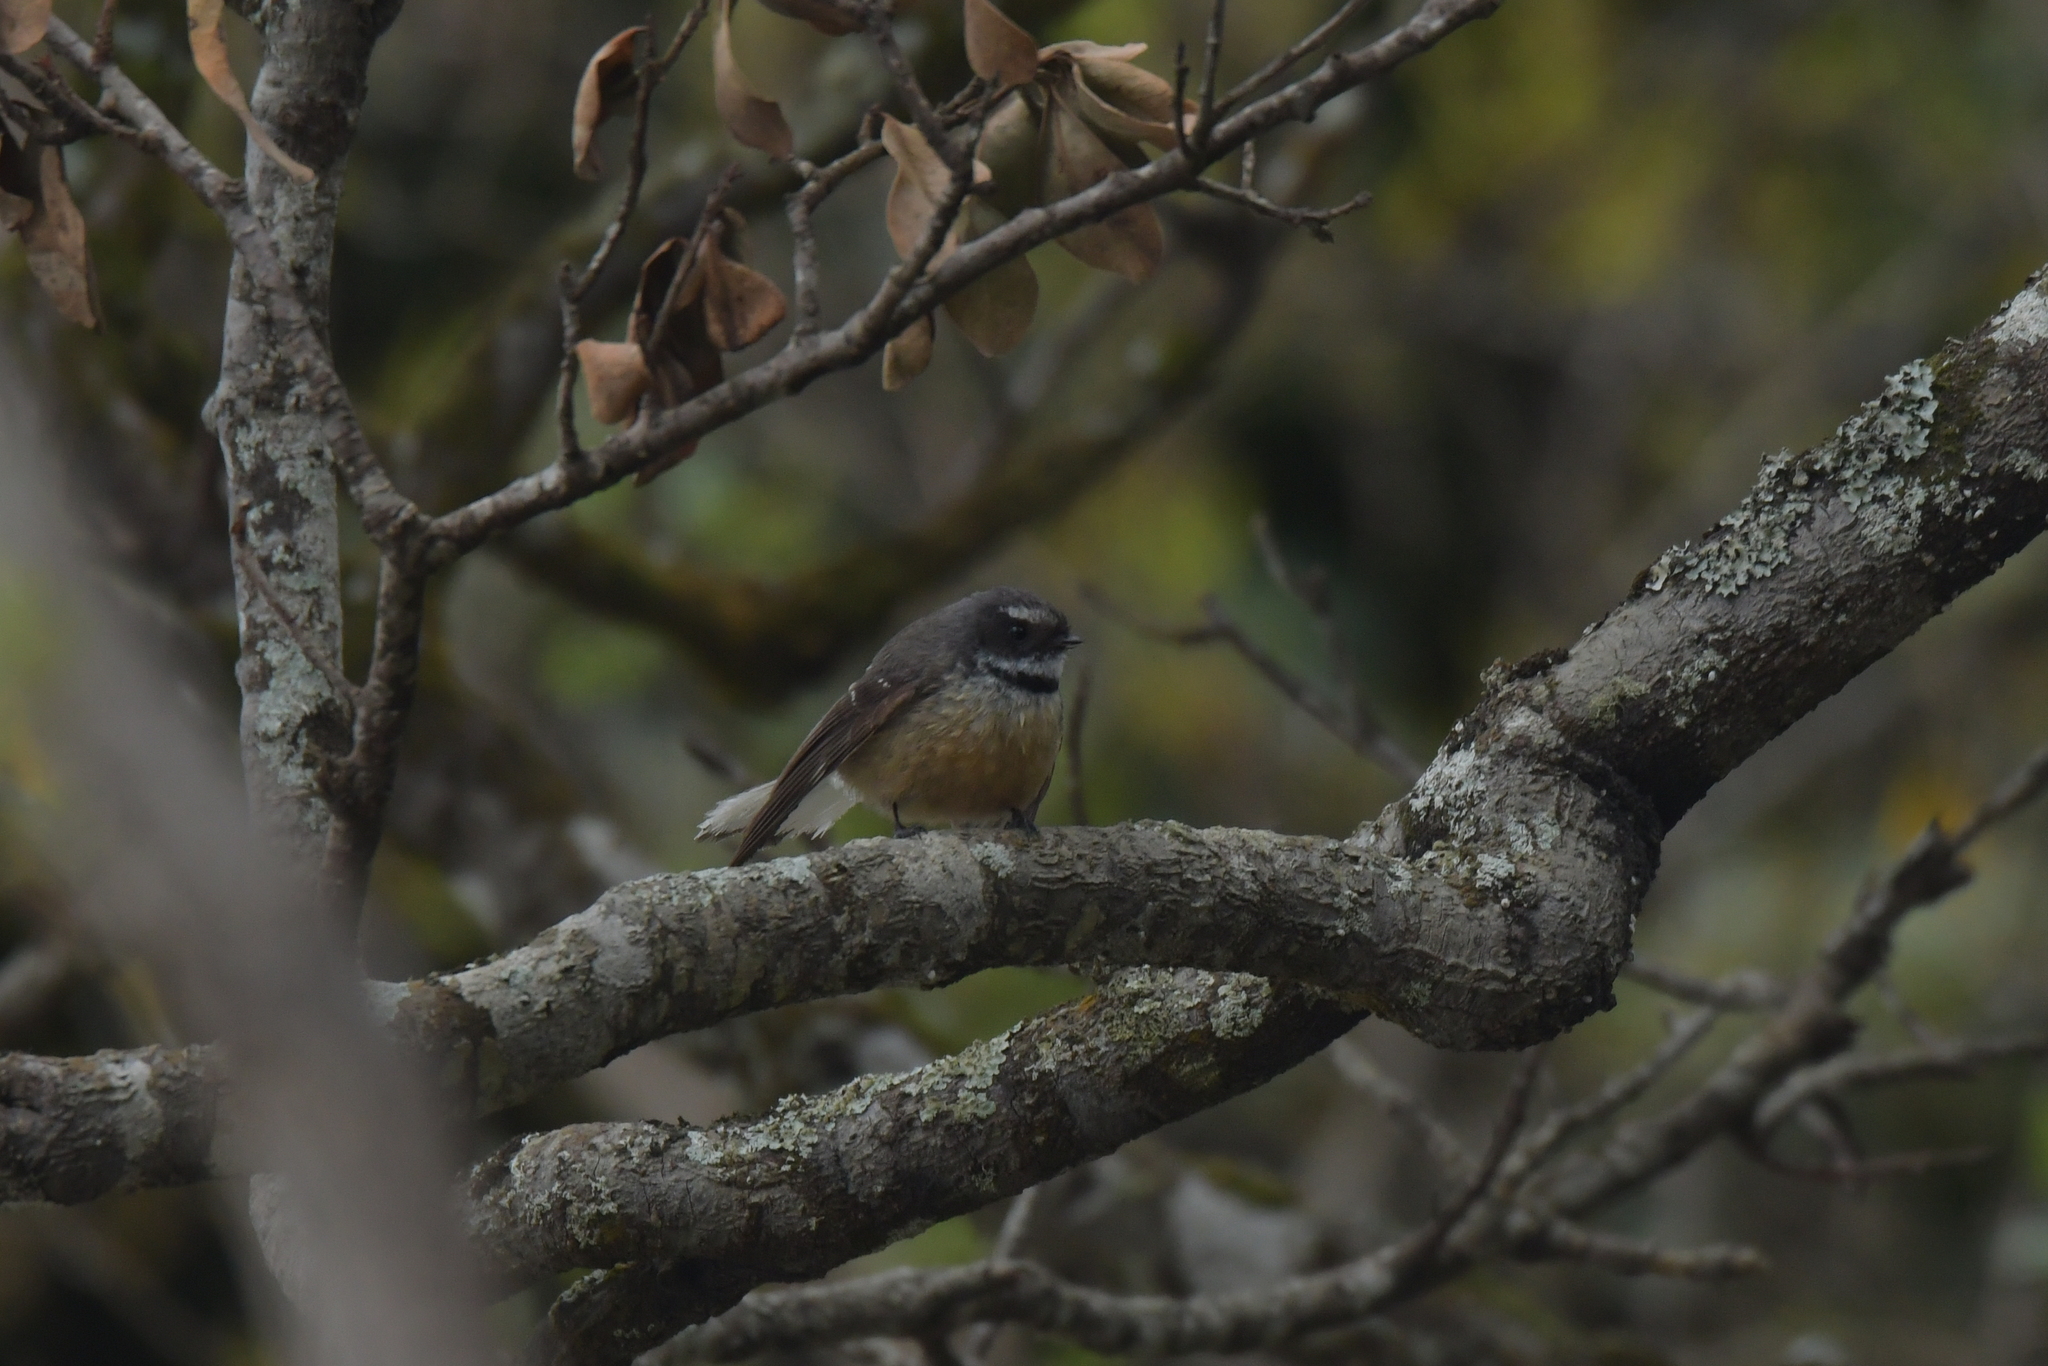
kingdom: Animalia
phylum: Chordata
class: Aves
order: Passeriformes
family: Rhipiduridae
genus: Rhipidura
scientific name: Rhipidura fuliginosa
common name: New zealand fantail
